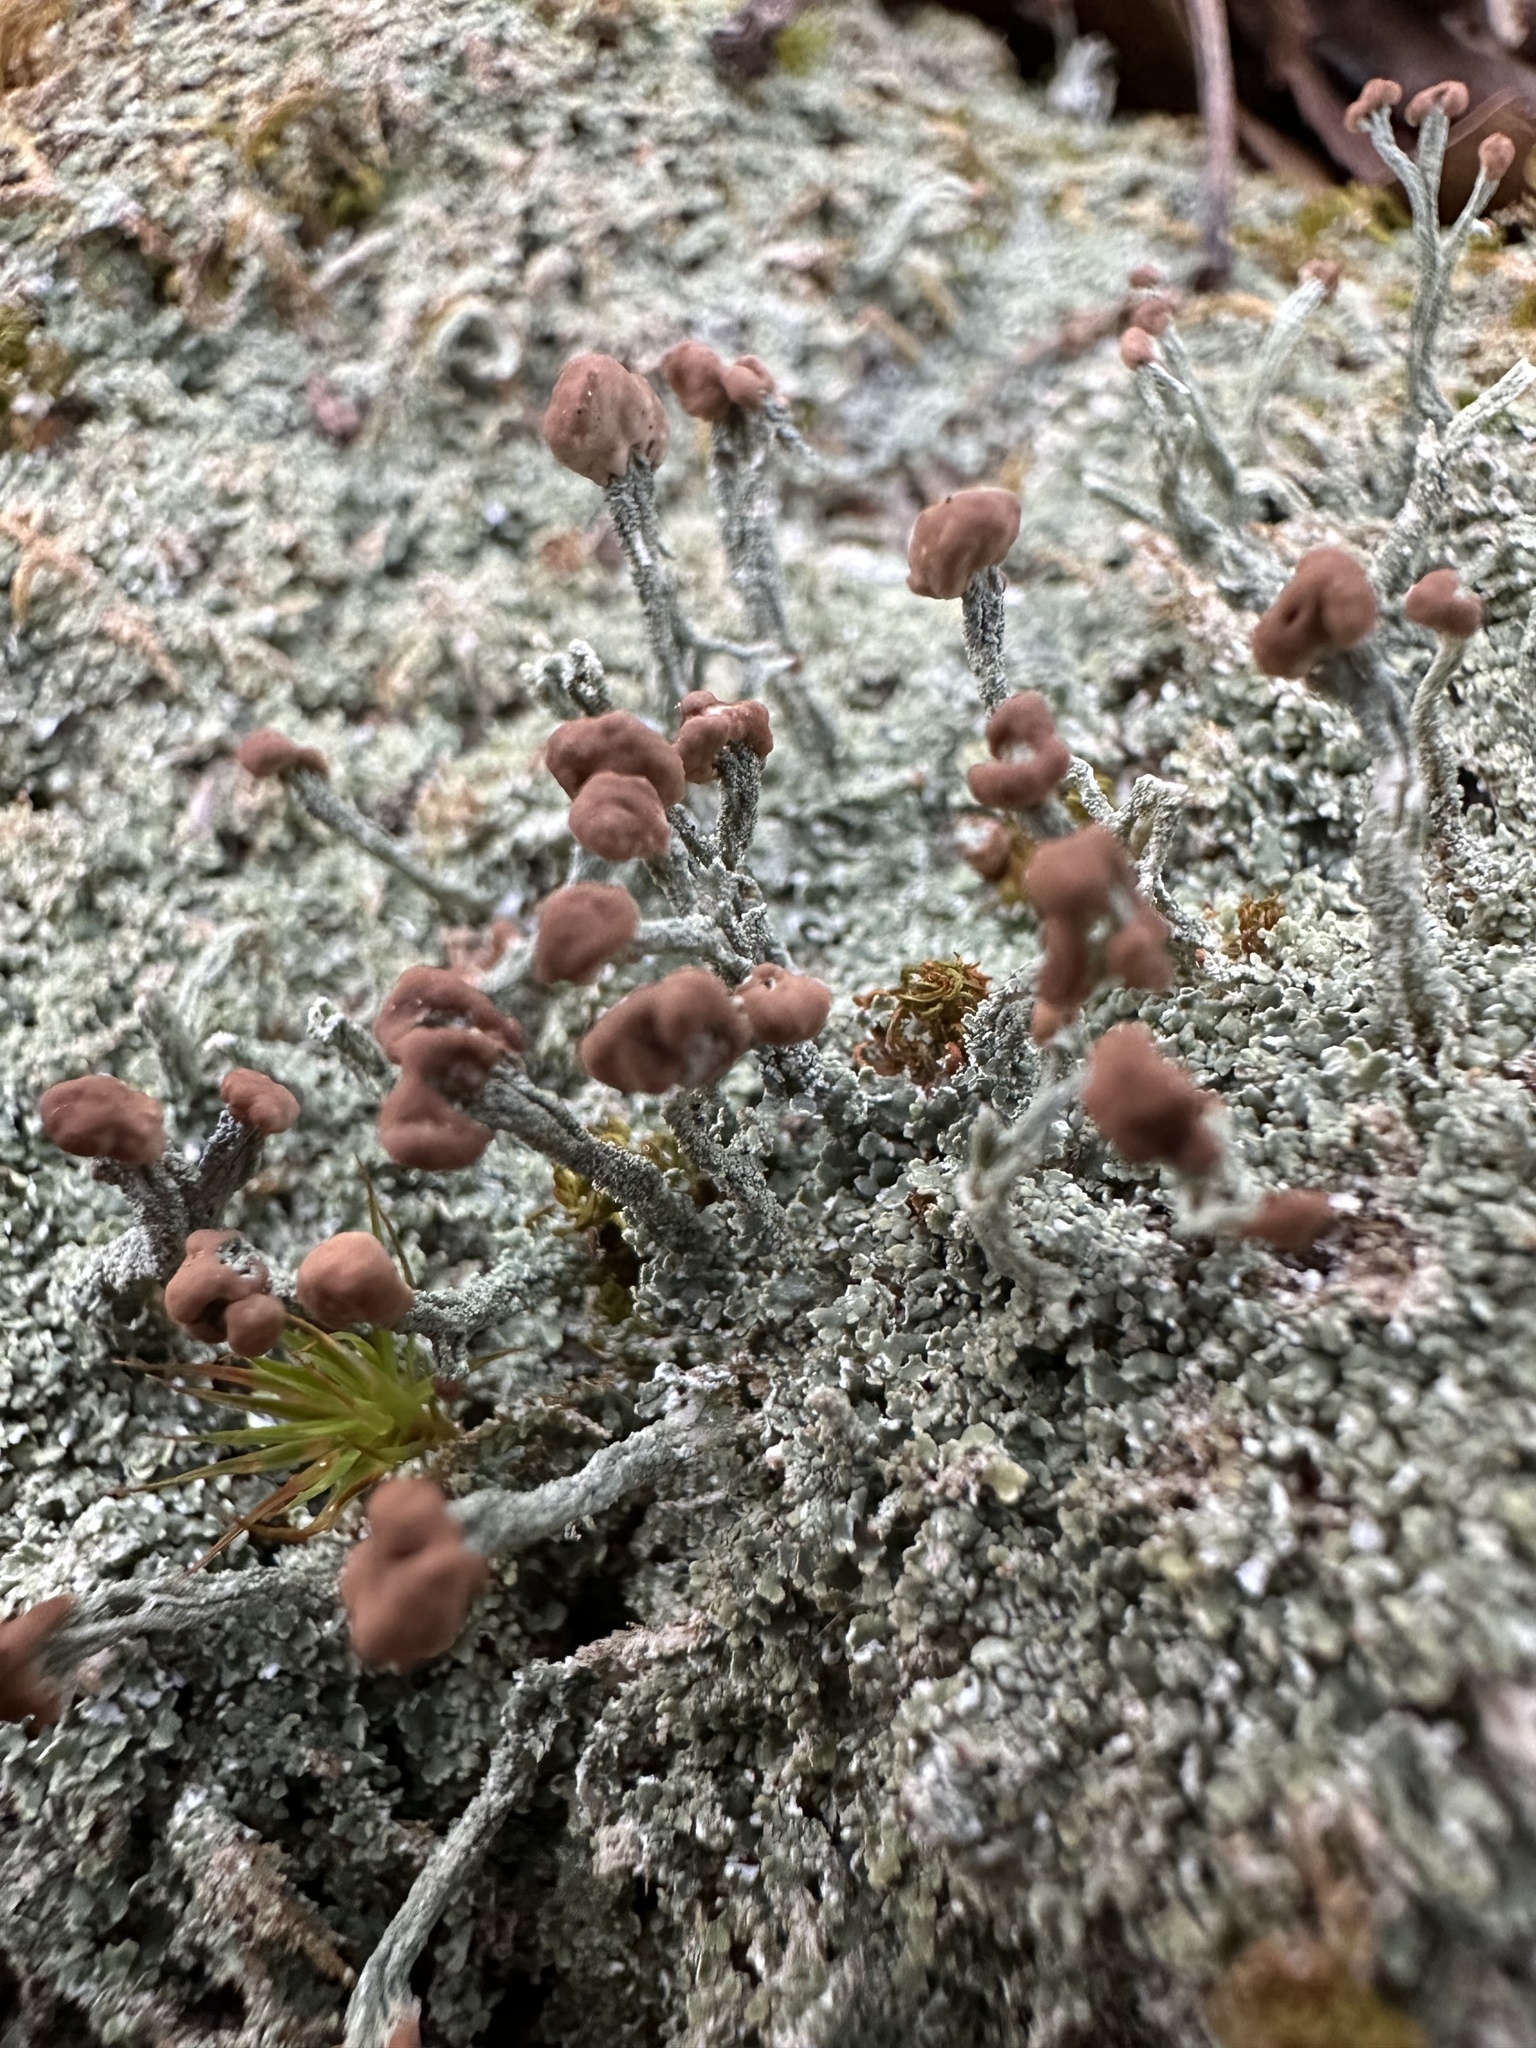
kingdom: Fungi
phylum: Ascomycota
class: Lecanoromycetes
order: Lecanorales
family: Cladoniaceae
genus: Cladonia
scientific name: Cladonia peziziformis
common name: Cup lichen
